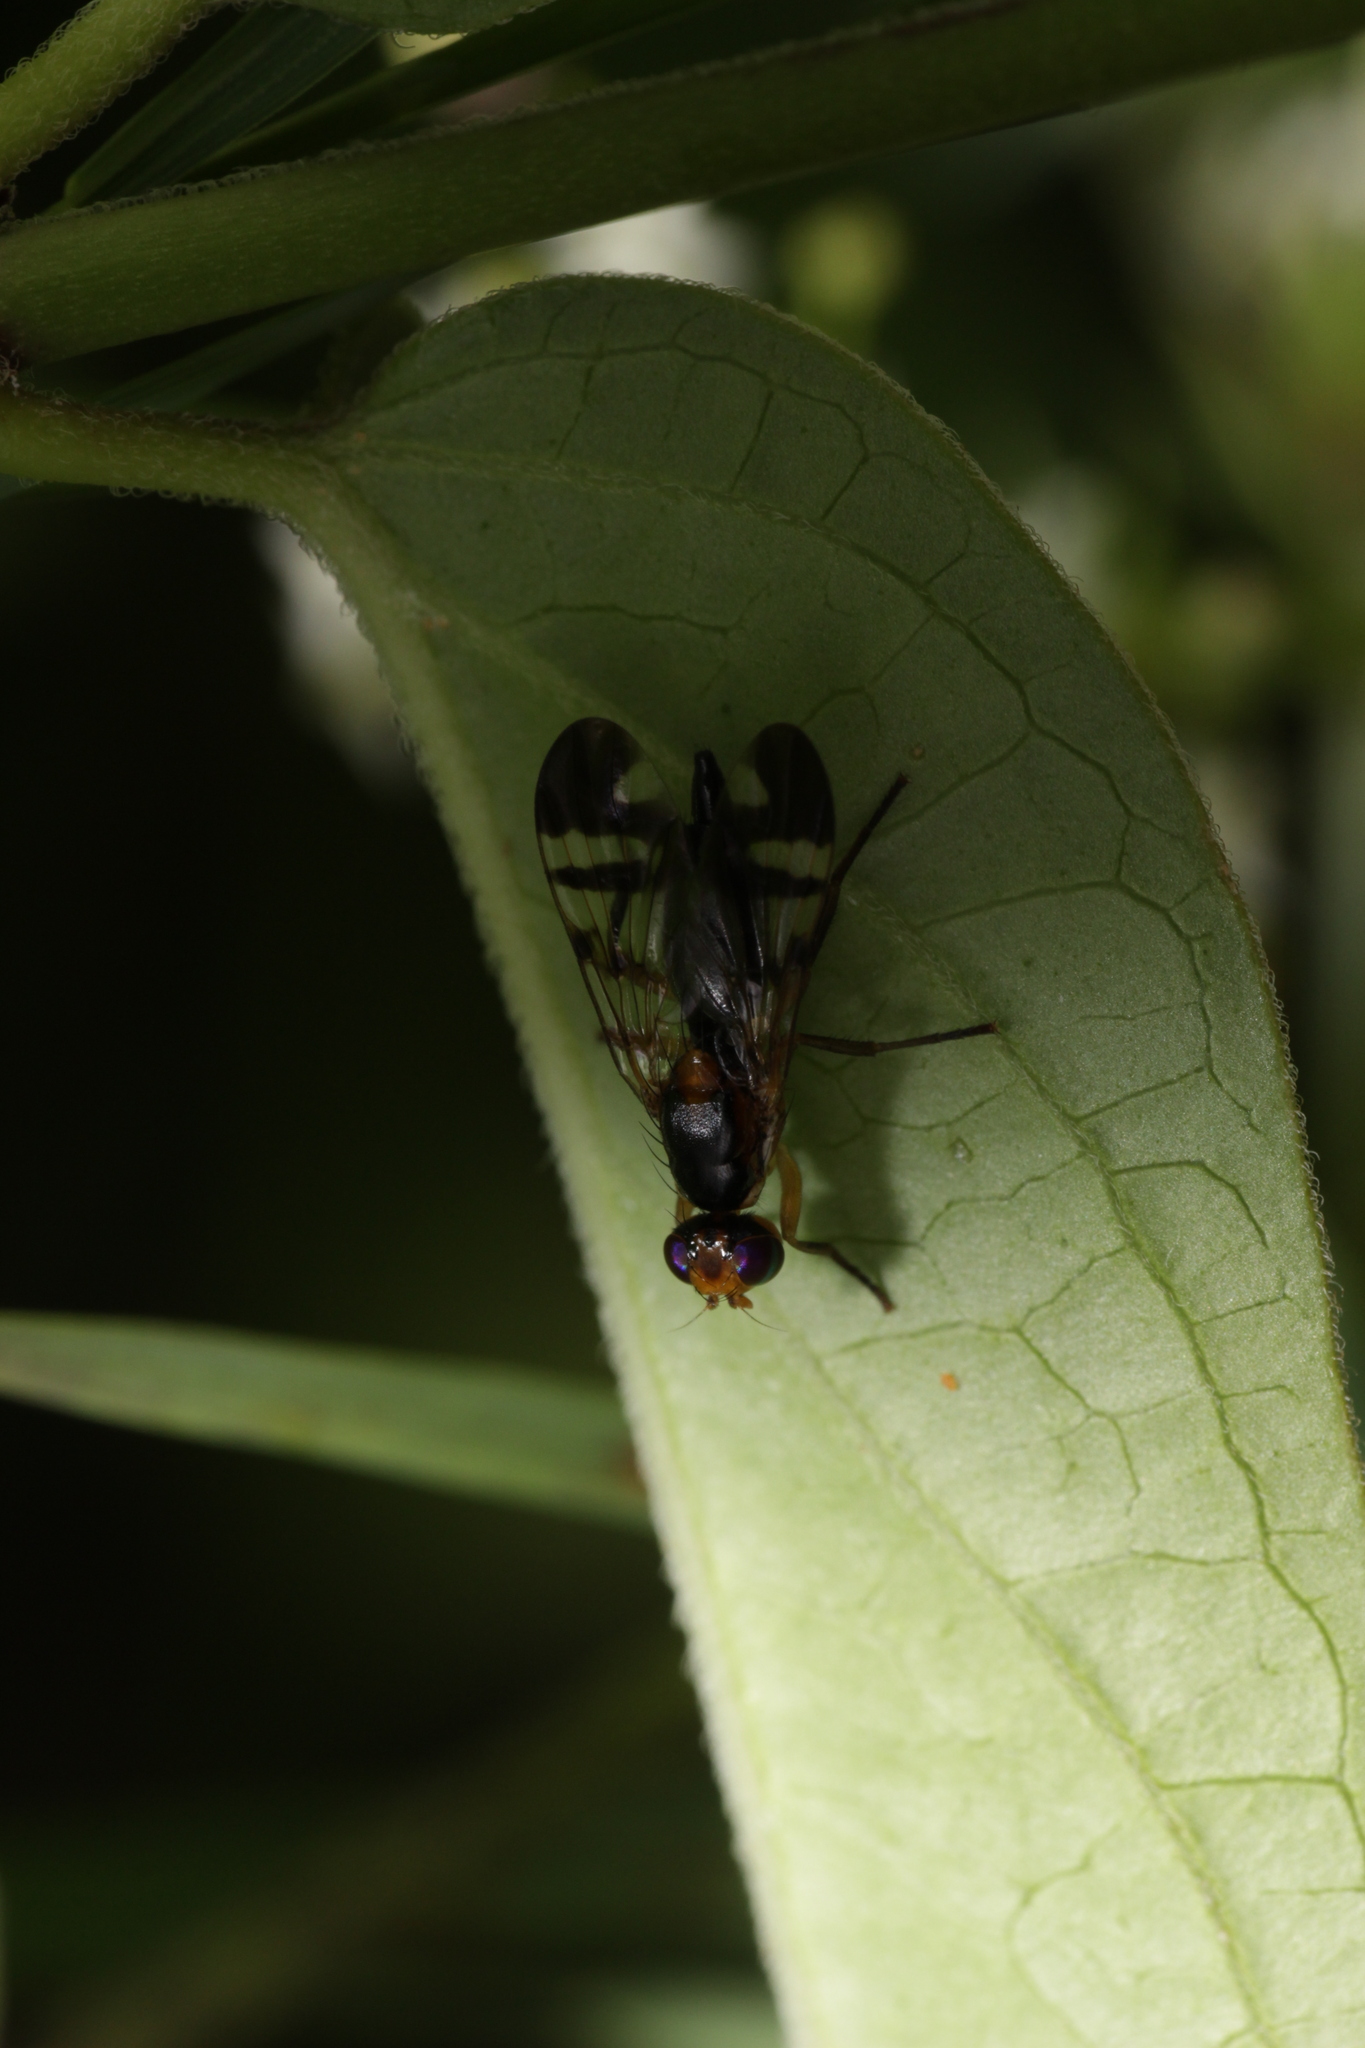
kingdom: Animalia
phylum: Arthropoda
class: Insecta
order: Diptera
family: Tephritidae
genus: Euphranta
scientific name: Euphranta connexa
